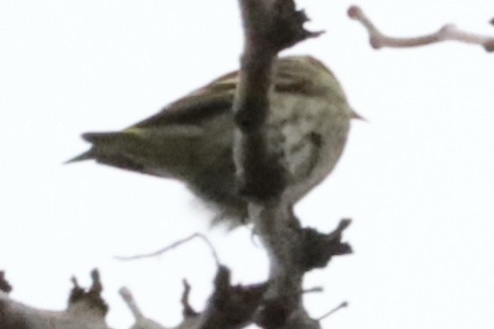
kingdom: Animalia
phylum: Chordata
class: Aves
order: Passeriformes
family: Fringillidae
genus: Spinus
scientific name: Spinus pinus
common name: Pine siskin
